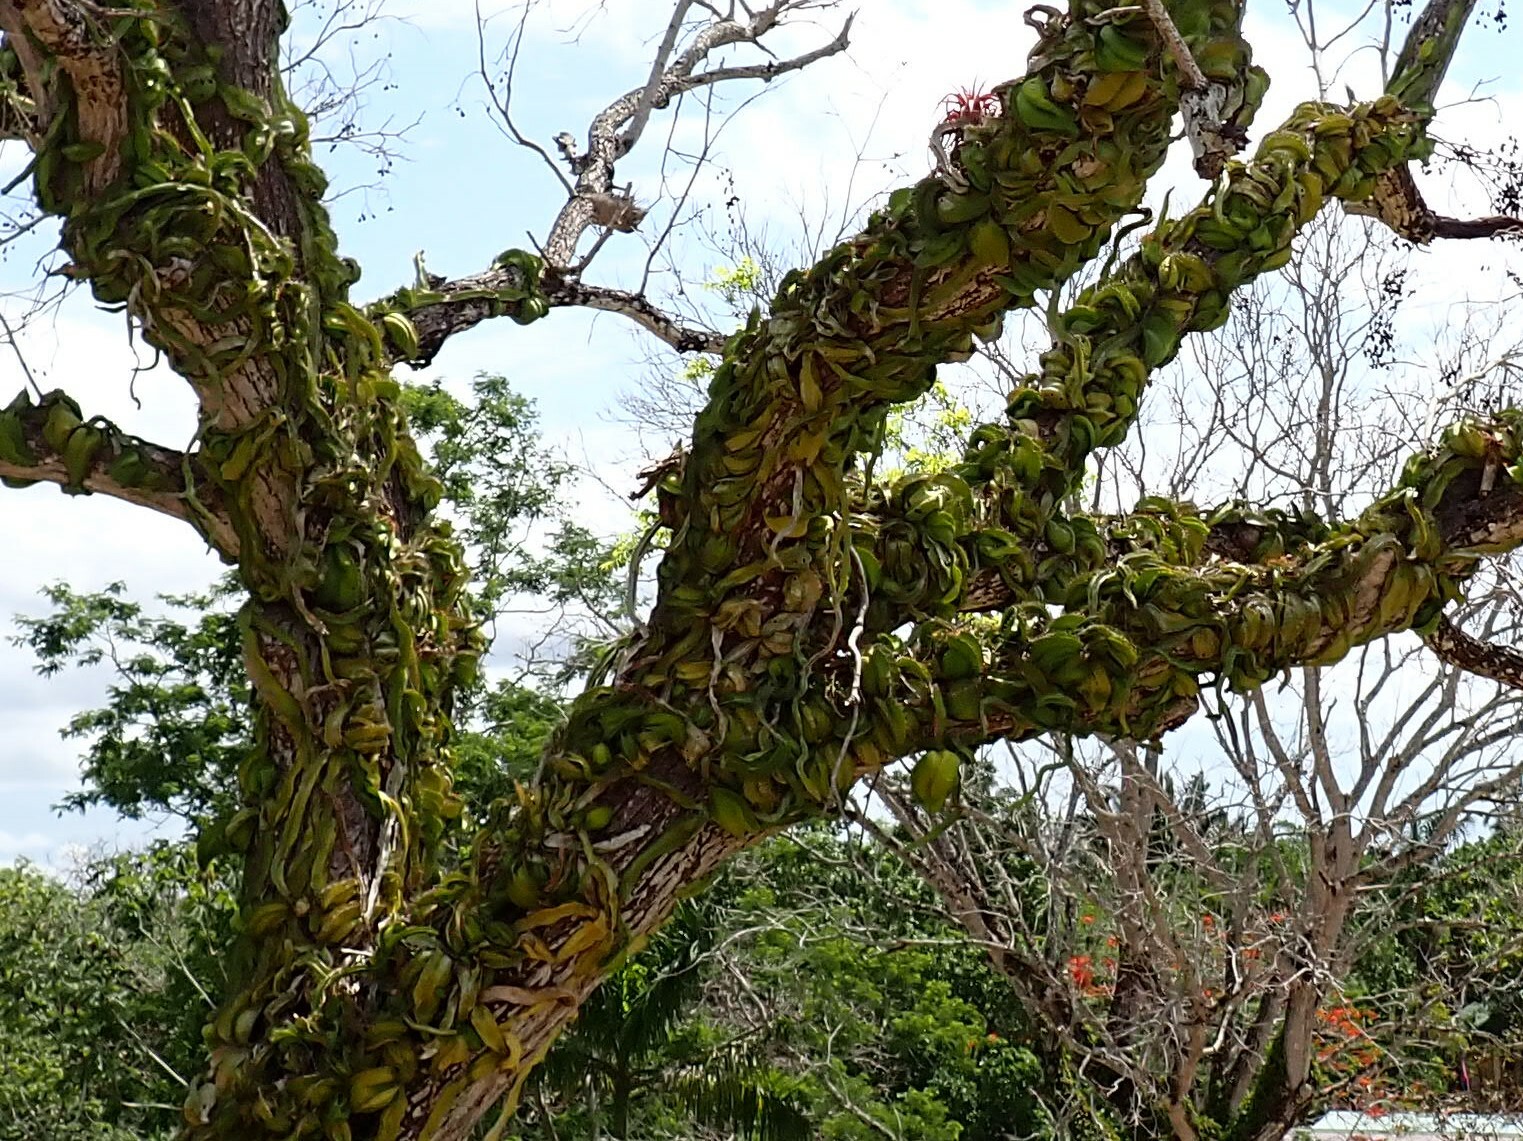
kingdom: Plantae
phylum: Tracheophyta
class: Magnoliopsida
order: Caryophyllales
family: Cactaceae
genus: Deamia
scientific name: Deamia testudo
